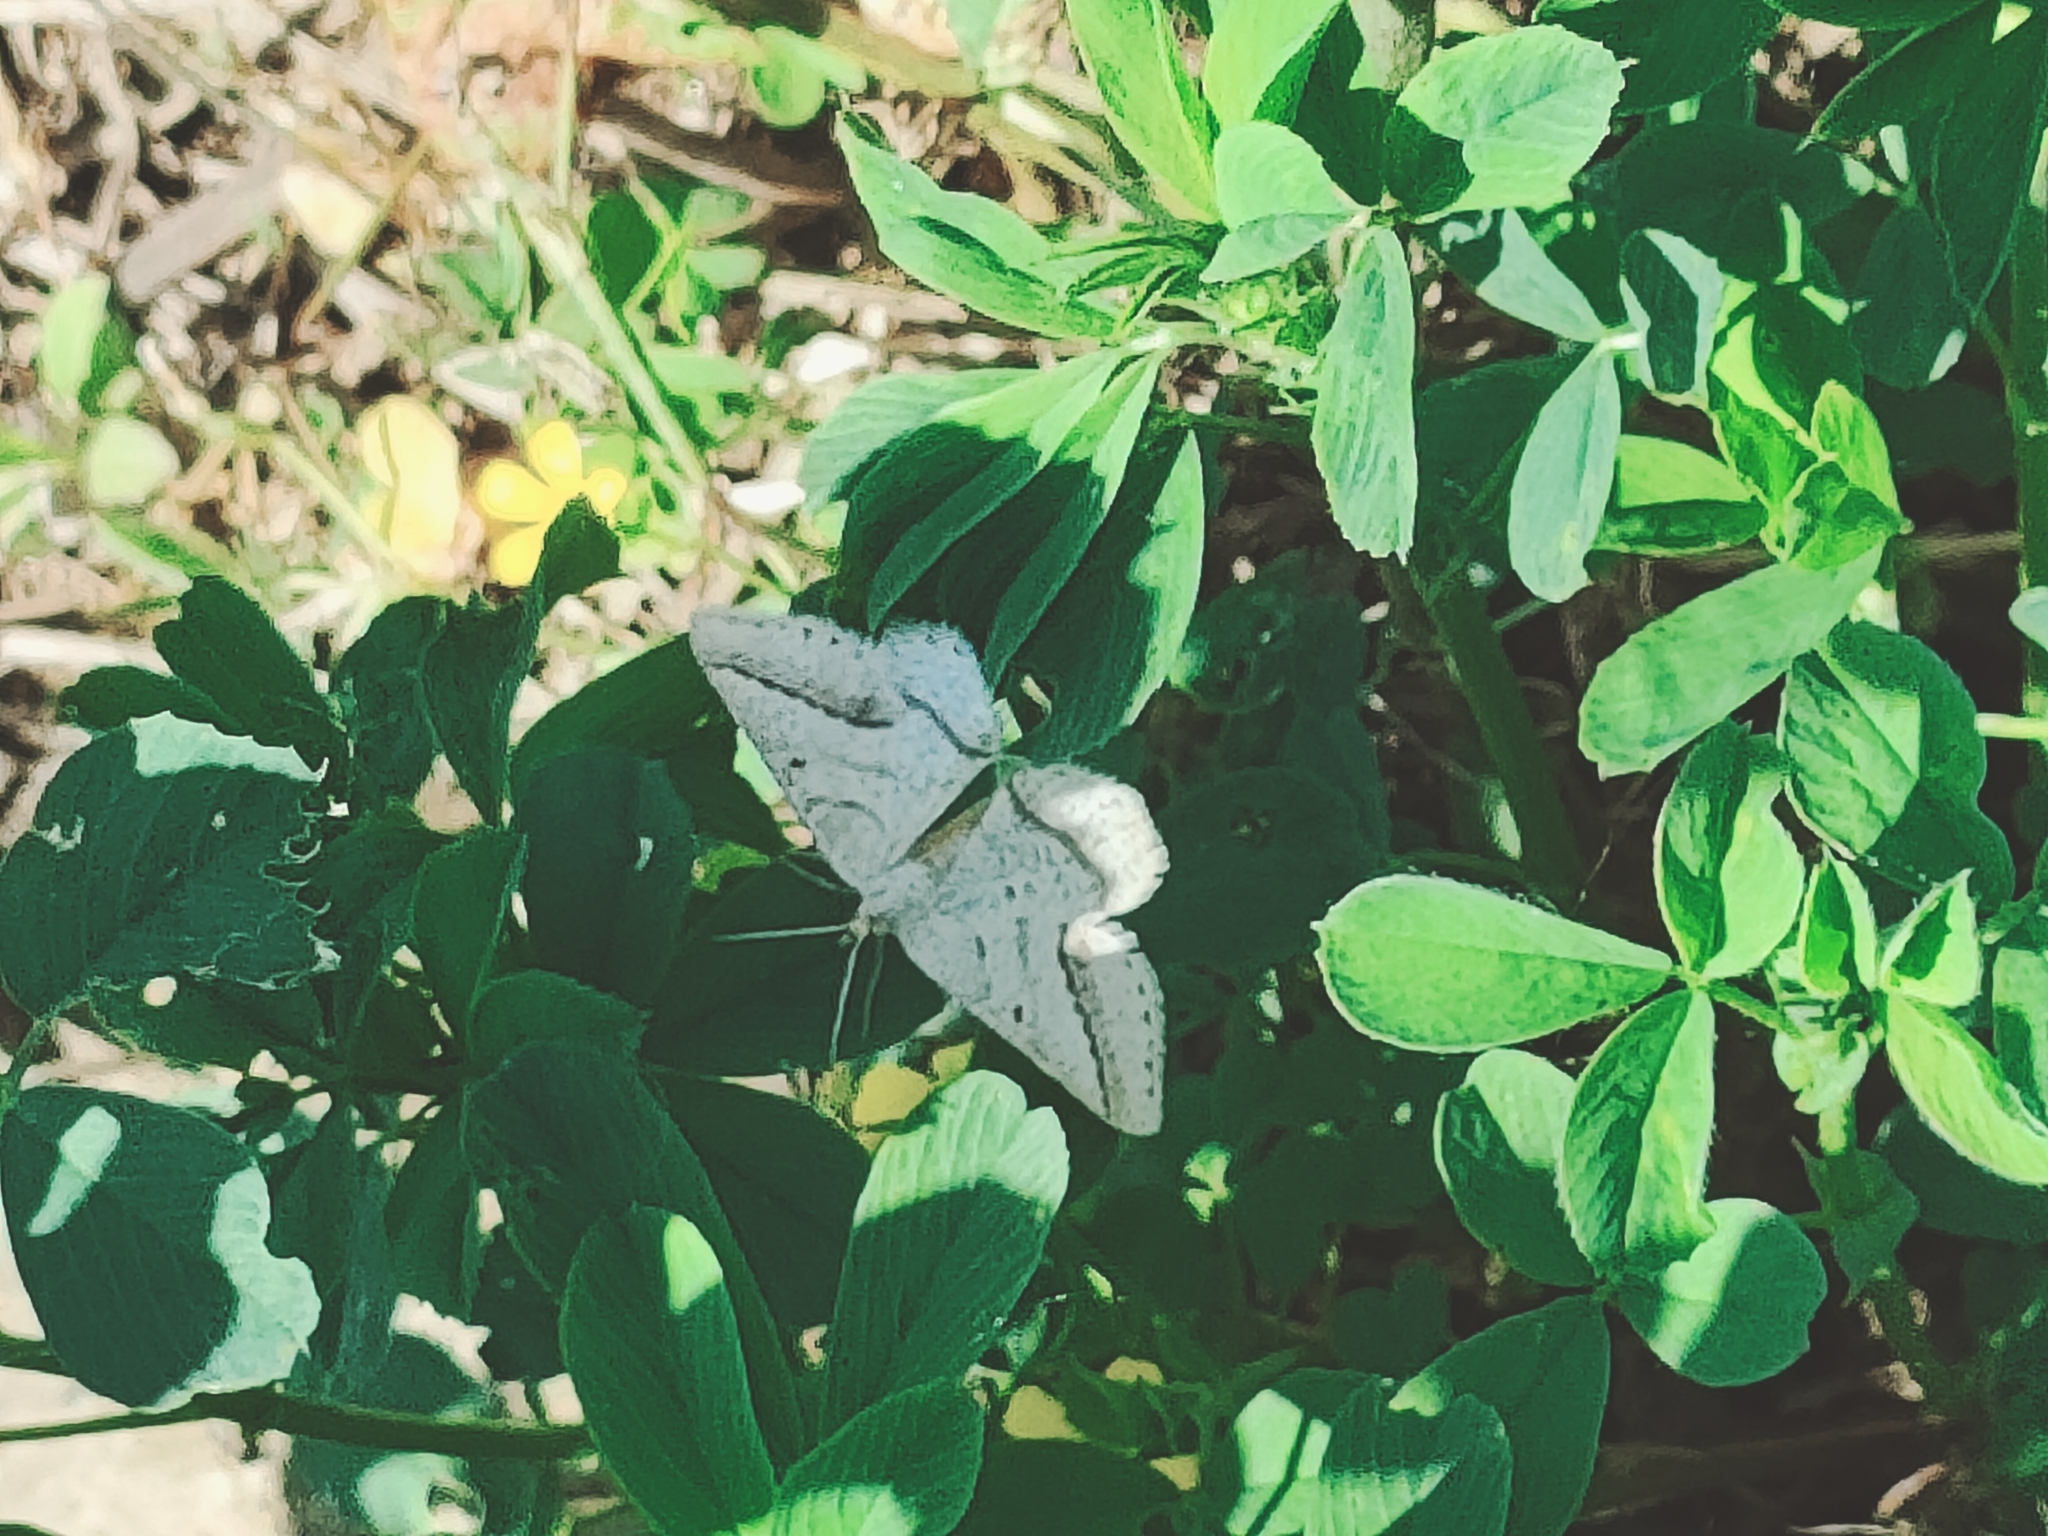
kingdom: Animalia
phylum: Arthropoda
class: Insecta
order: Lepidoptera
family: Geometridae
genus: Tephrina
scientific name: Tephrina arenacearia
